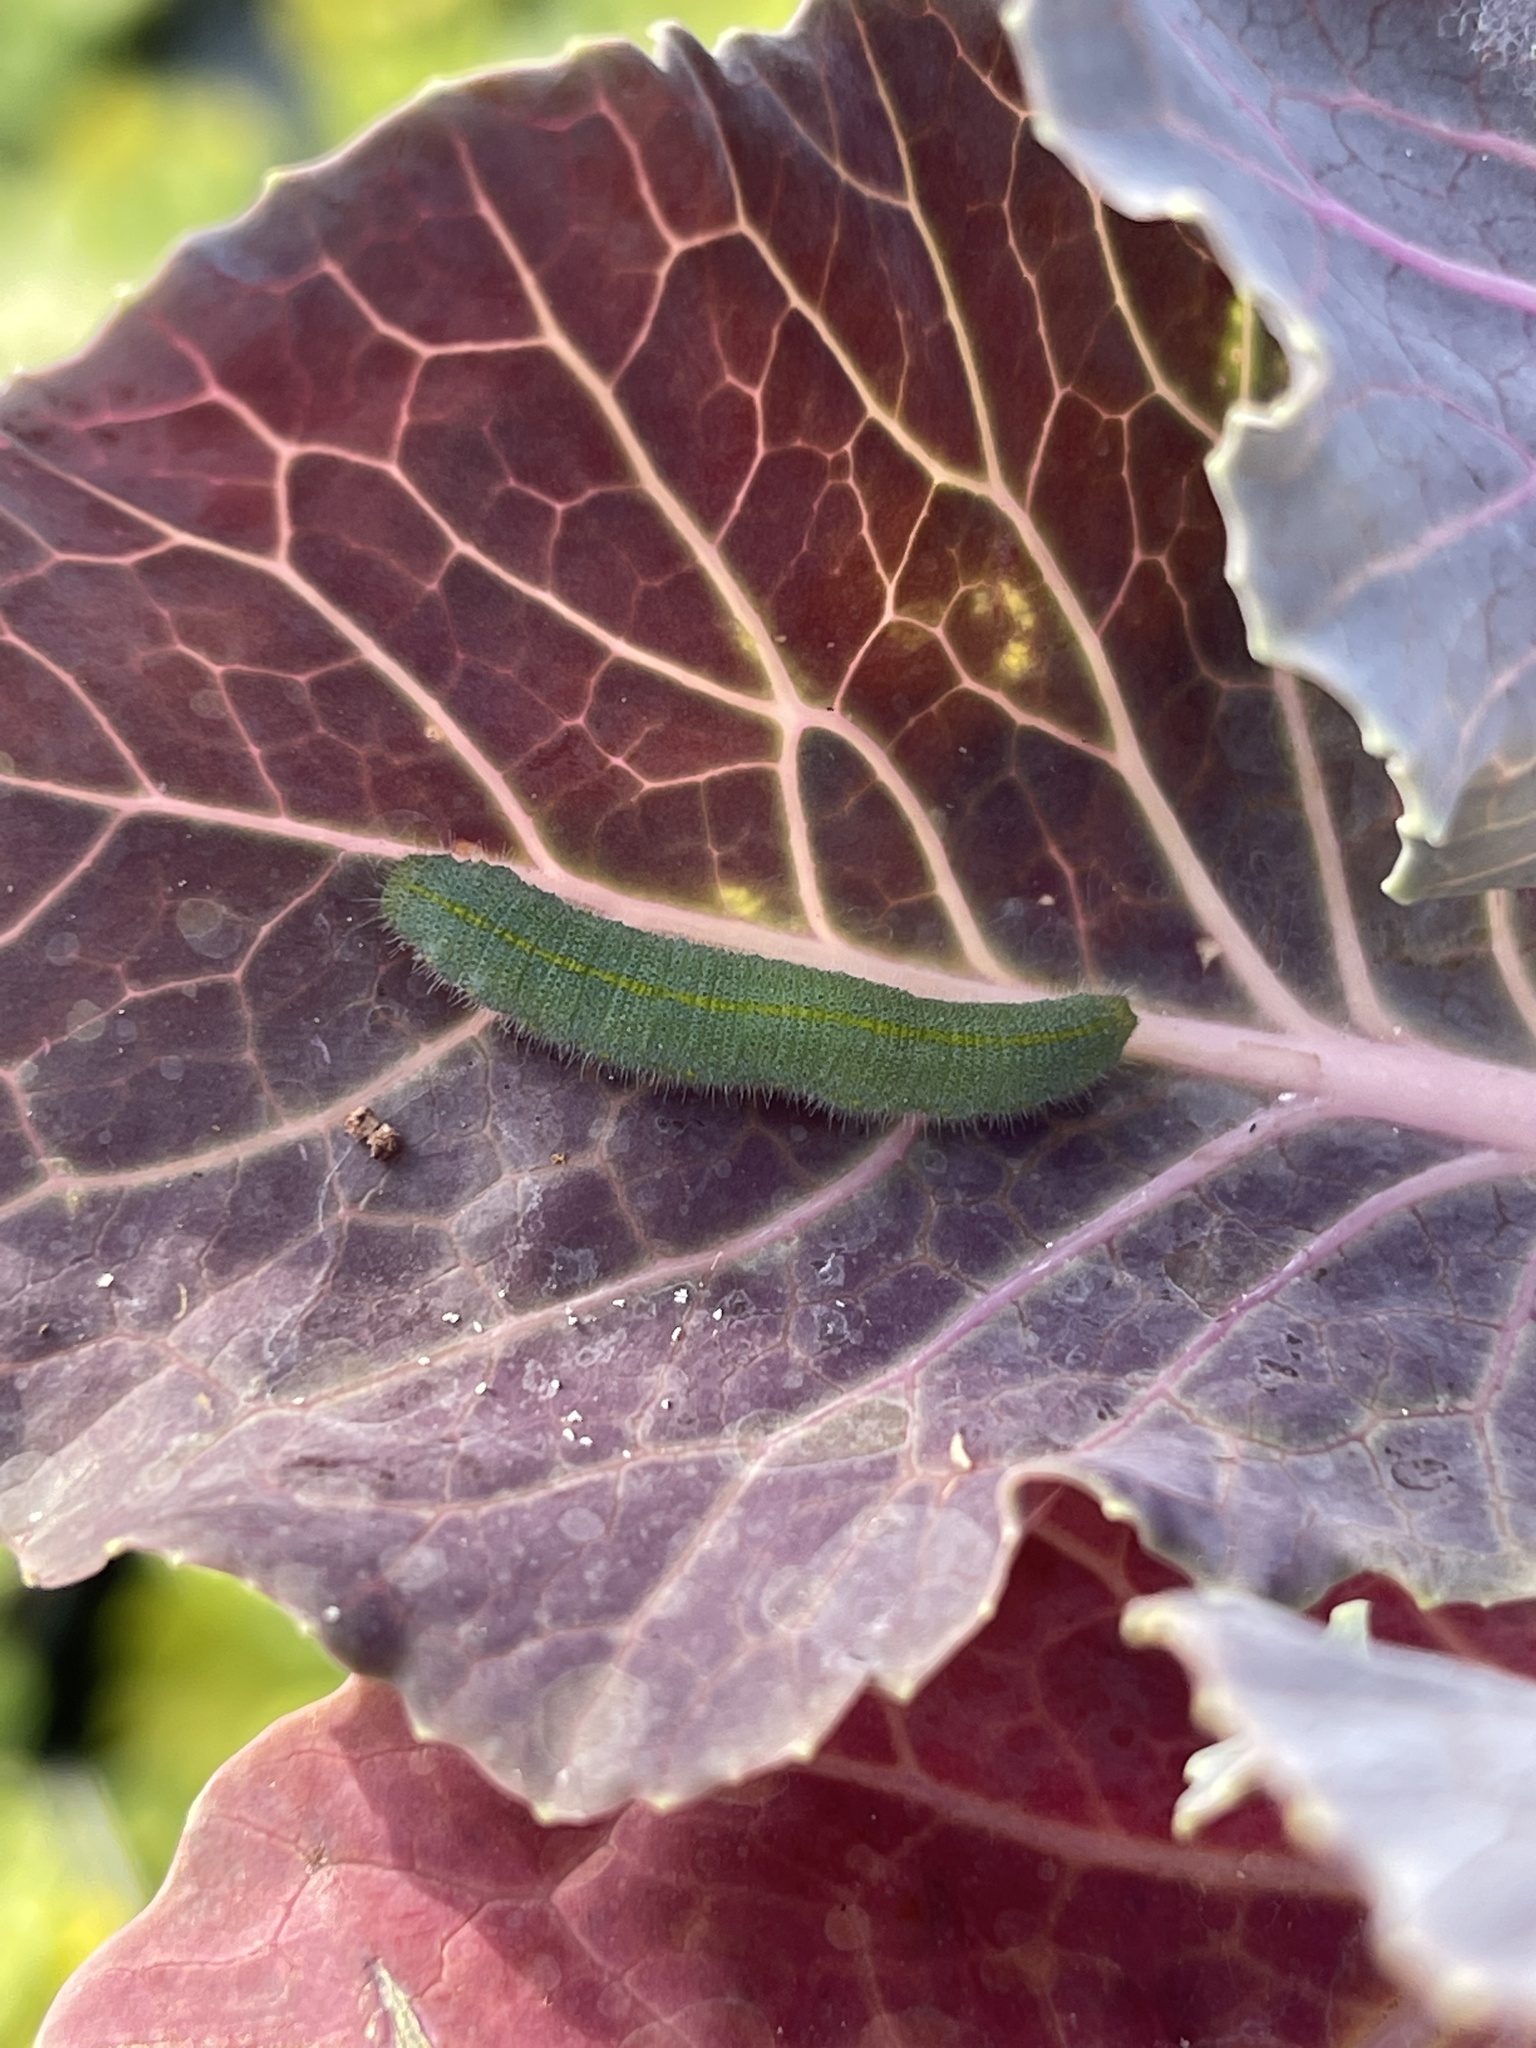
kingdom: Animalia
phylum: Arthropoda
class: Insecta
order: Lepidoptera
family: Pieridae
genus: Pieris
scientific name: Pieris rapae
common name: Small white
